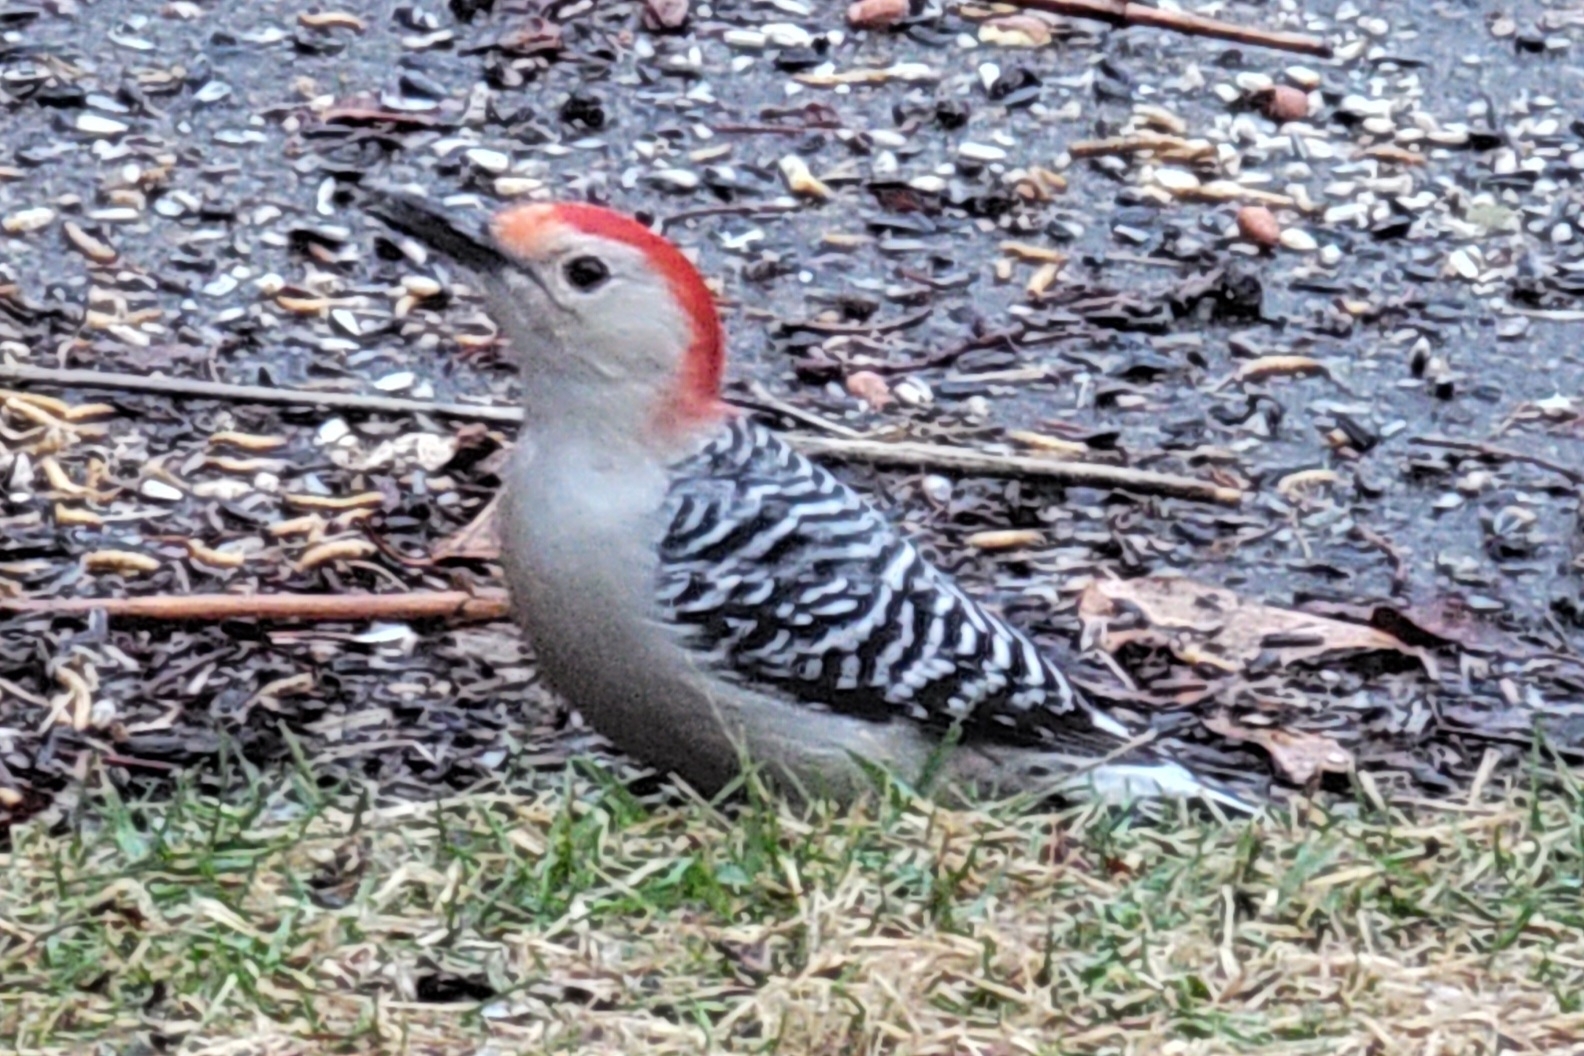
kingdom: Animalia
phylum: Chordata
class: Aves
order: Piciformes
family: Picidae
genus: Melanerpes
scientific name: Melanerpes carolinus
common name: Red-bellied woodpecker
